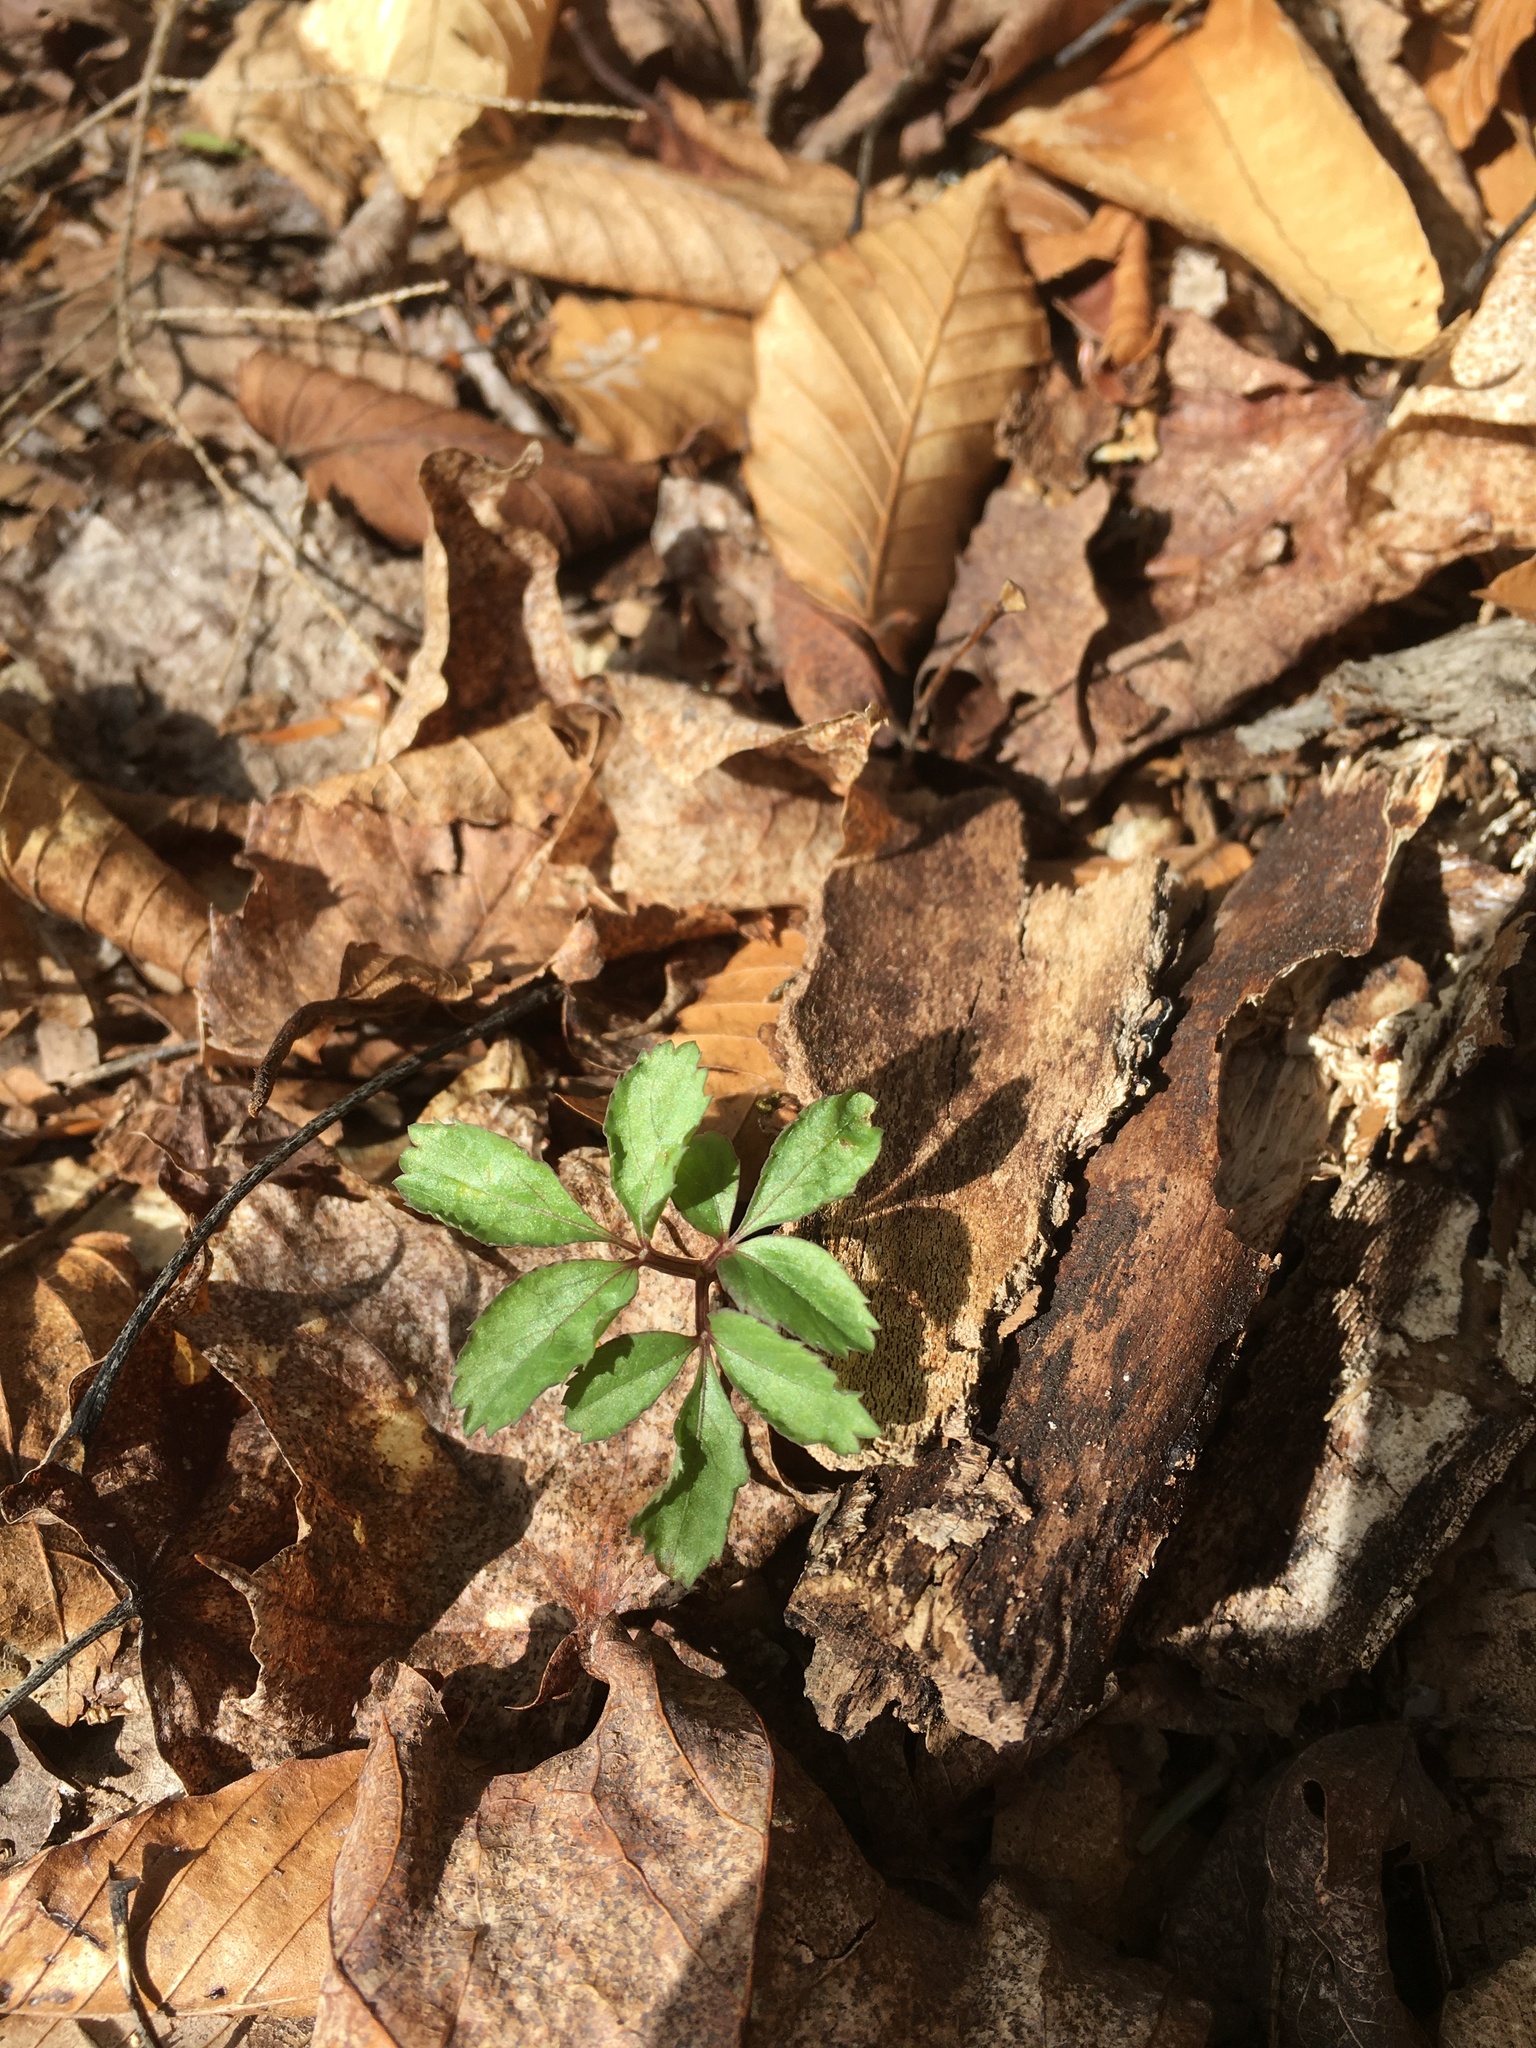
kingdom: Plantae
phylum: Tracheophyta
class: Magnoliopsida
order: Apiales
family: Araliaceae
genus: Panax
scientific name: Panax trifolius
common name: Dwarf ginseng
